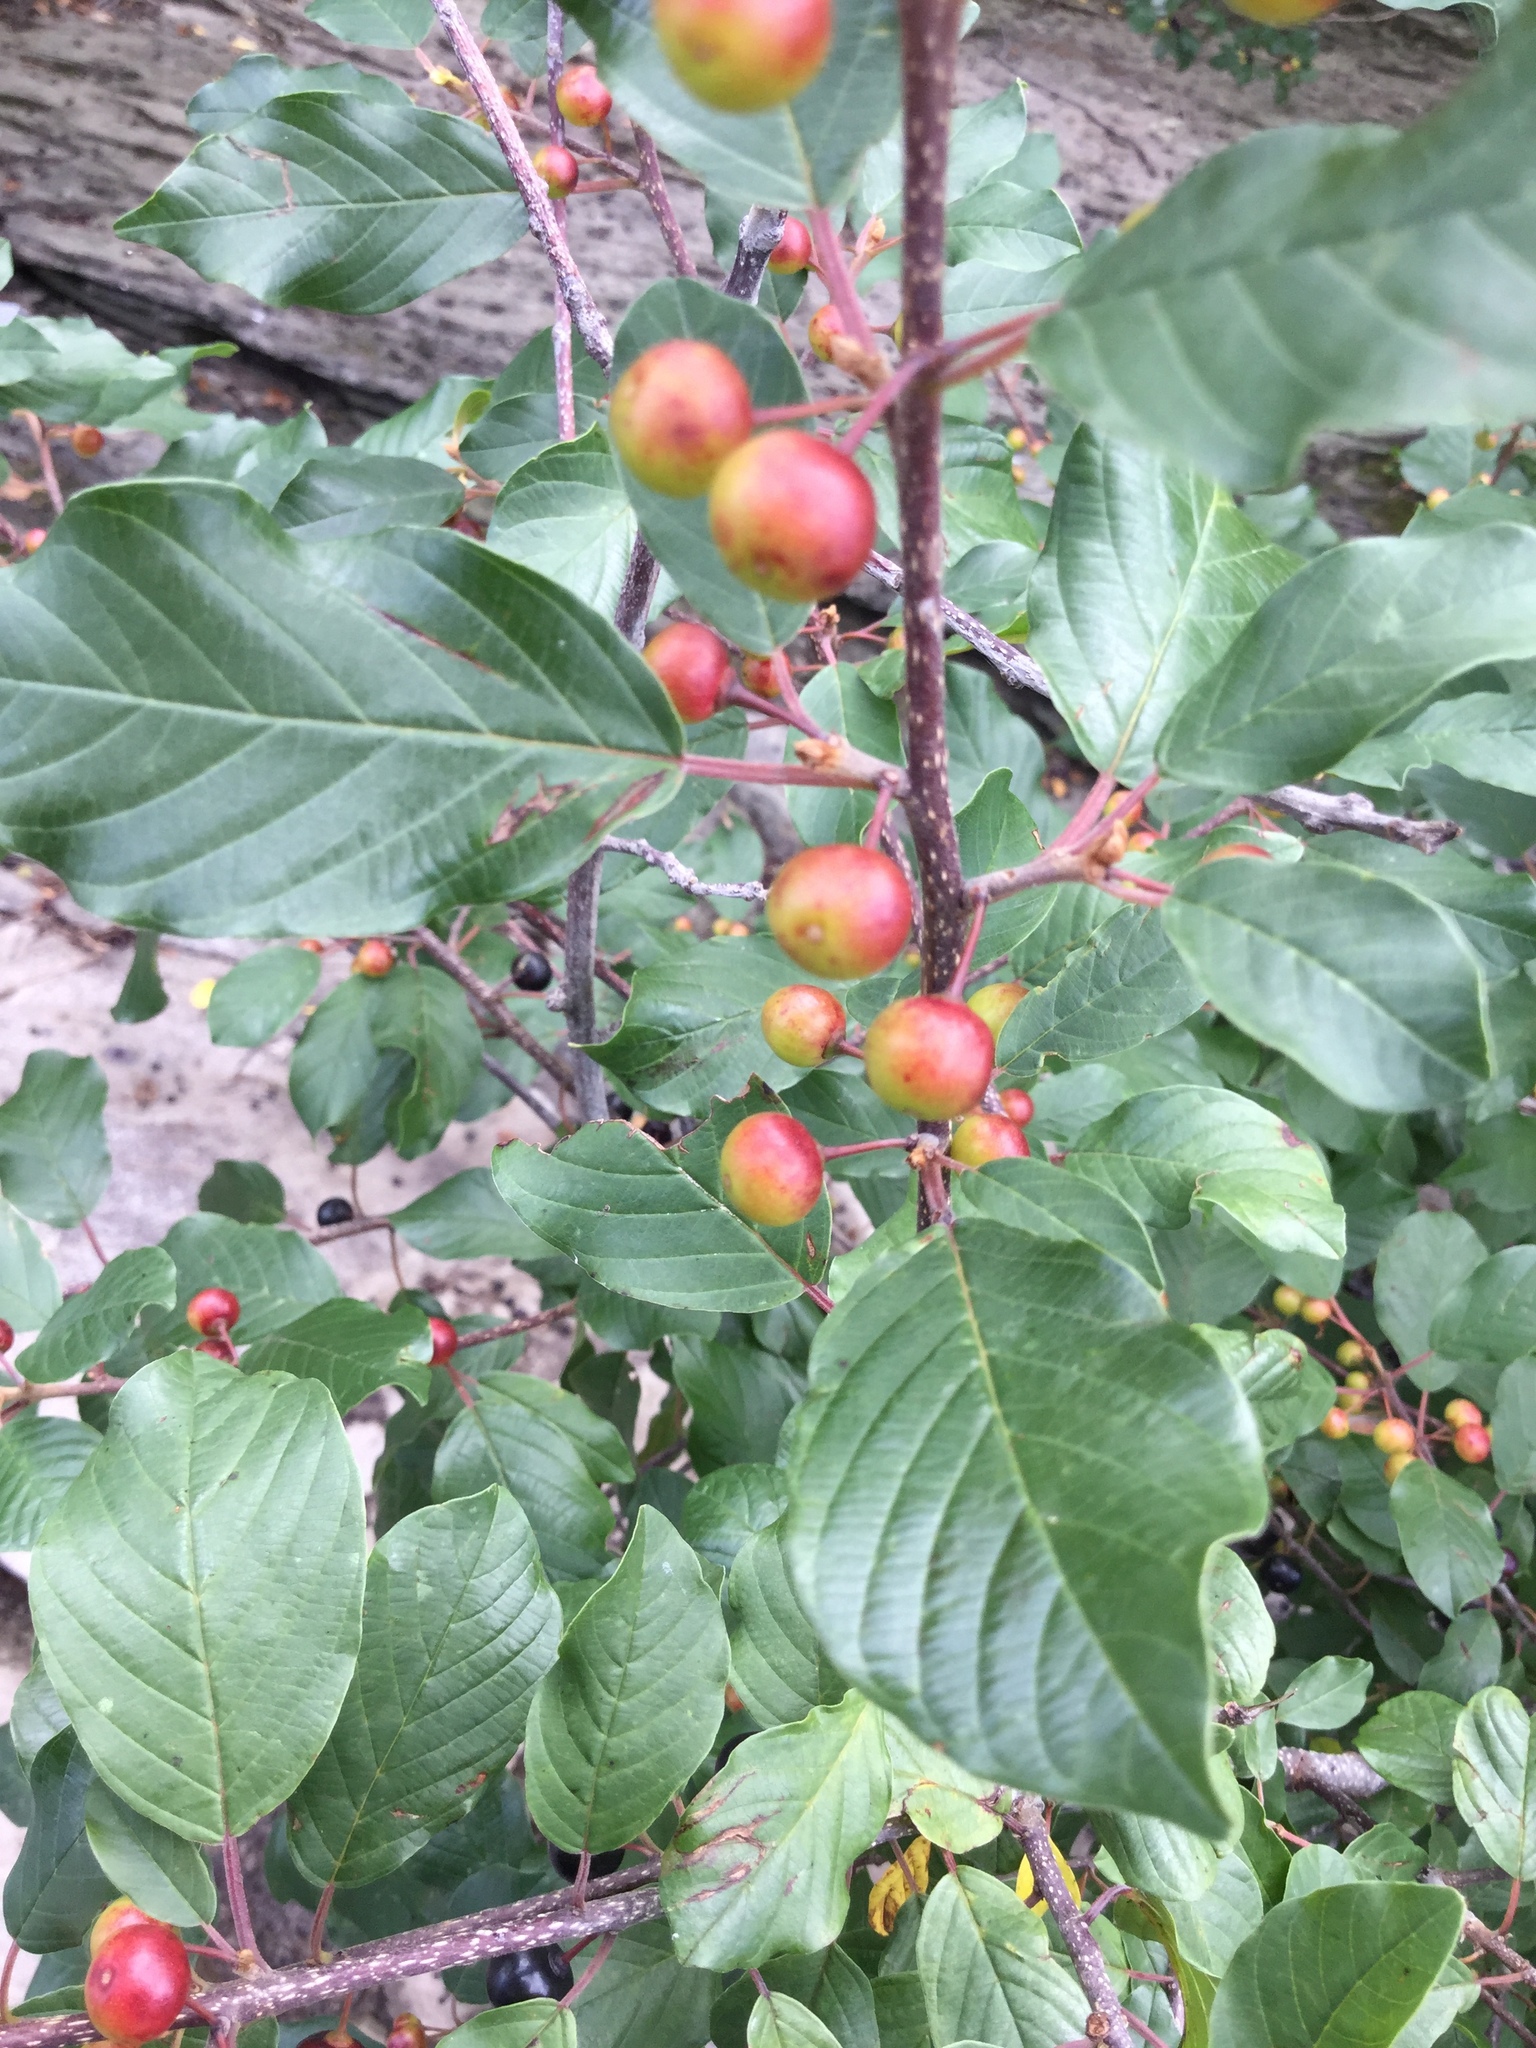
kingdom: Plantae
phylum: Tracheophyta
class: Magnoliopsida
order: Rosales
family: Rhamnaceae
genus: Frangula
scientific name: Frangula alnus
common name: Alder buckthorn
